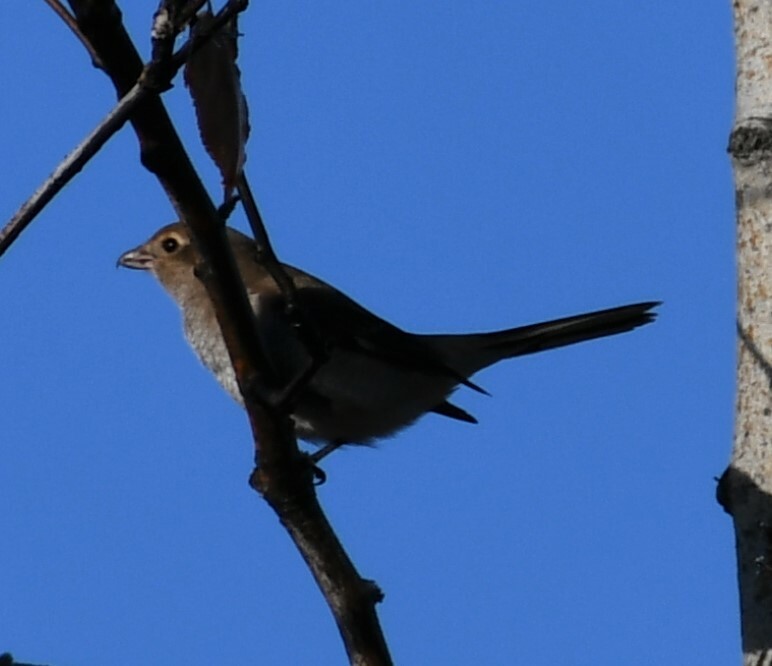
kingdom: Animalia
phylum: Chordata
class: Aves
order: Passeriformes
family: Laniidae
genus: Lanius
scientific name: Lanius borealis
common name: Northern shrike
